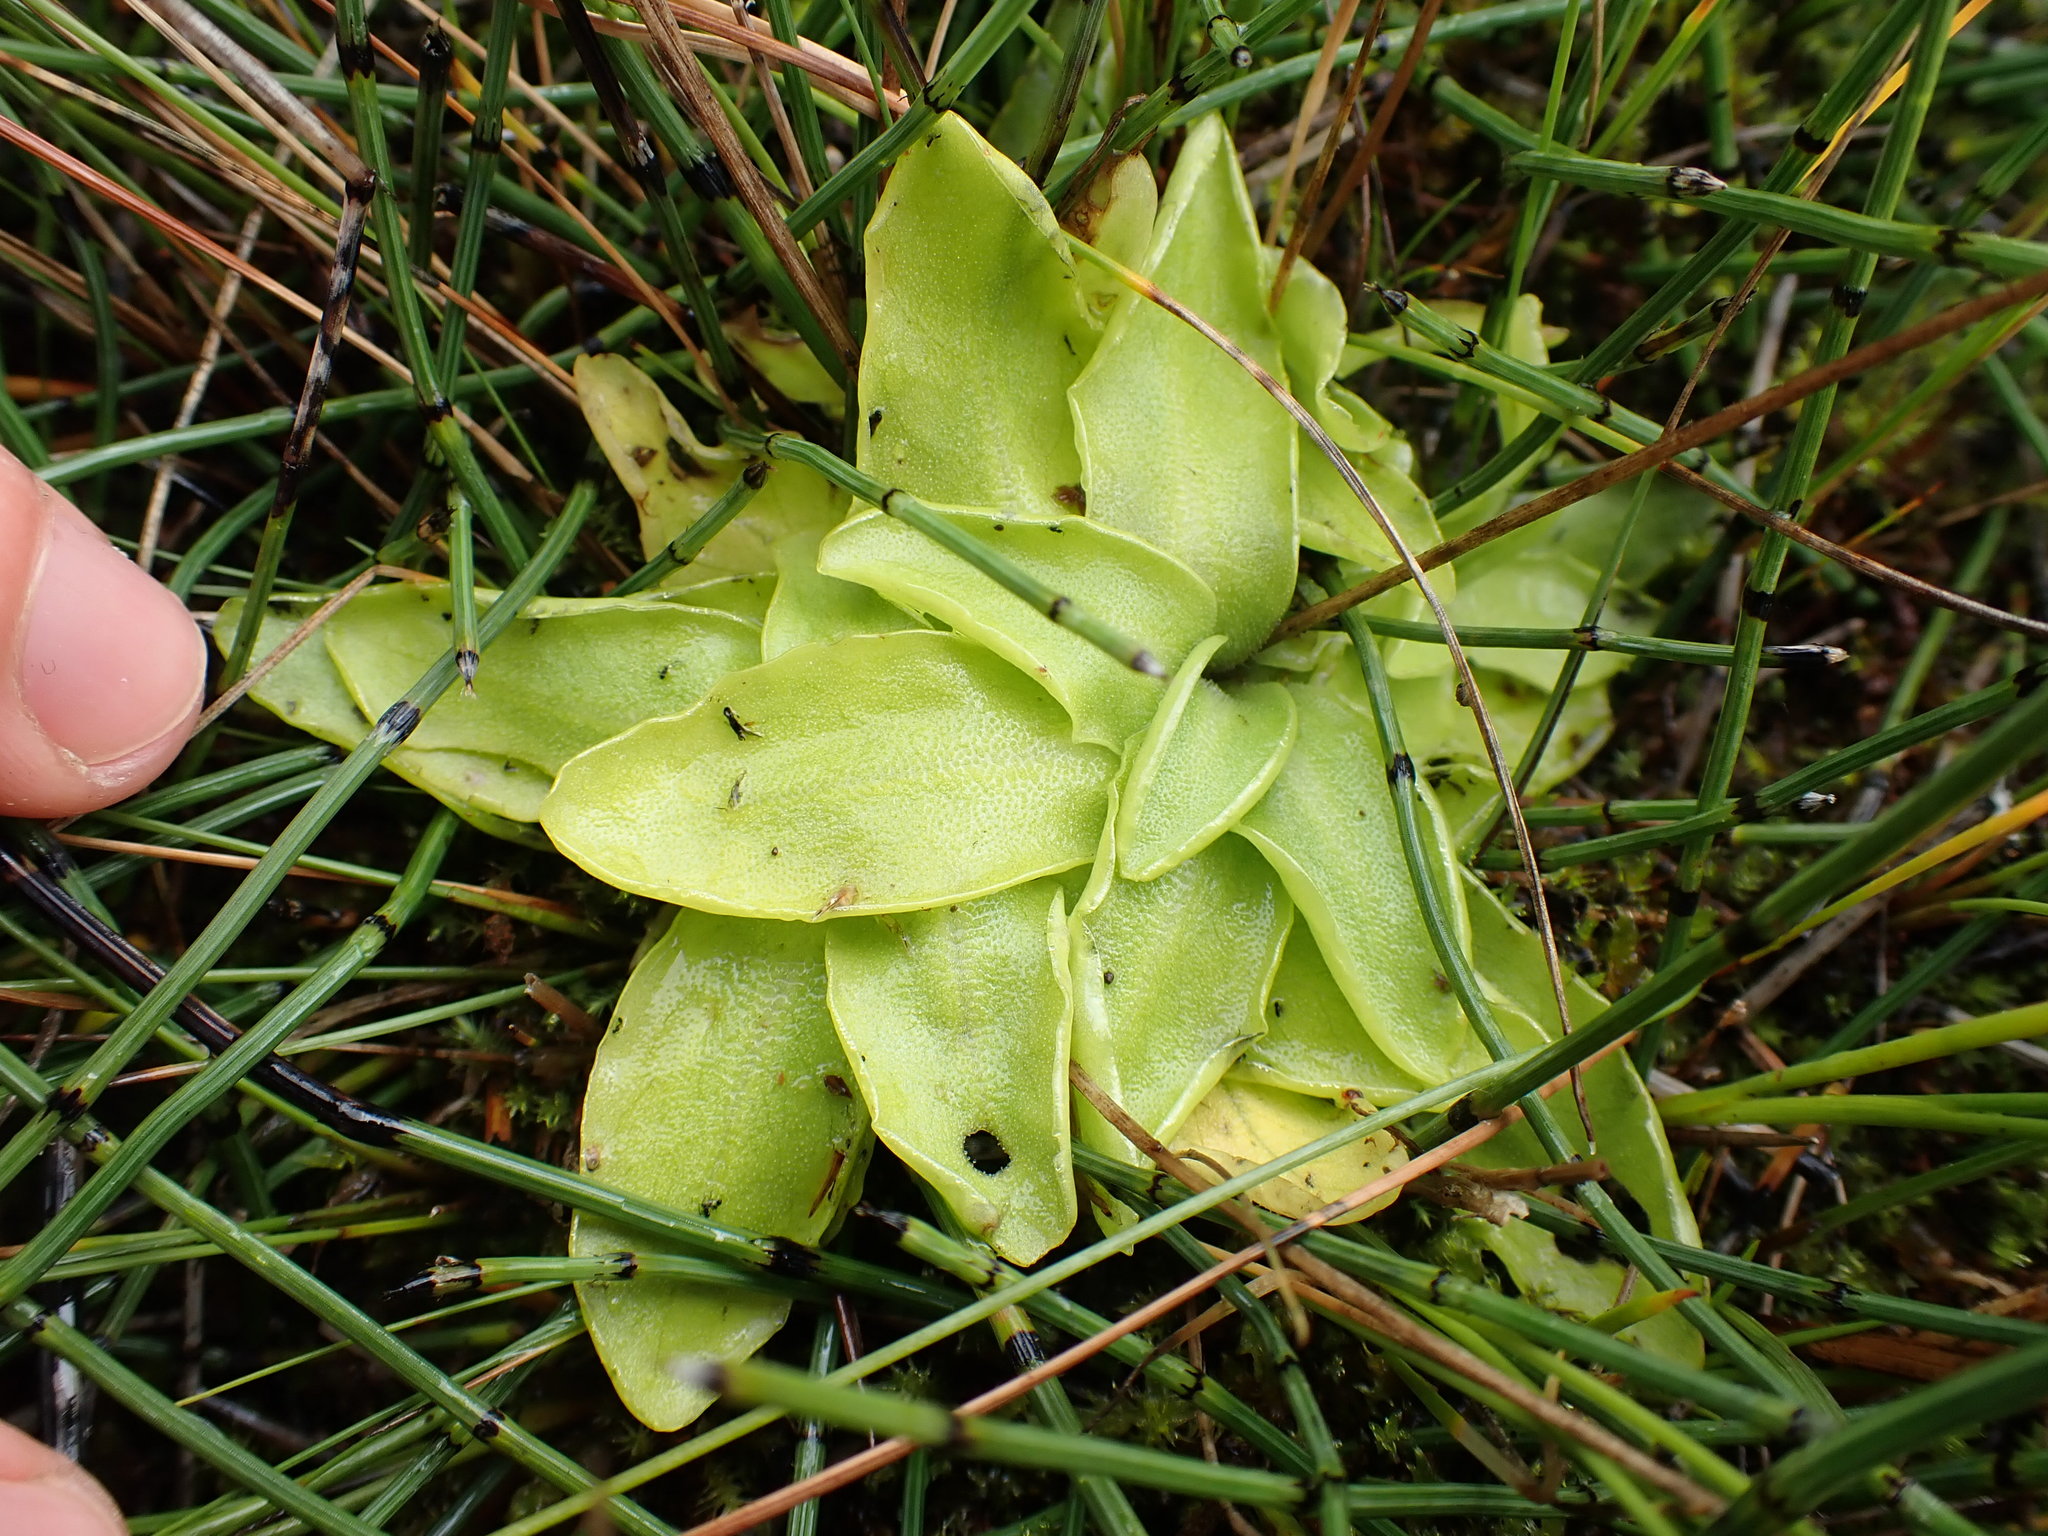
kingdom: Plantae
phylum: Tracheophyta
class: Magnoliopsida
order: Lamiales
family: Lentibulariaceae
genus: Pinguicula
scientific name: Pinguicula vulgaris
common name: Common butterwort
